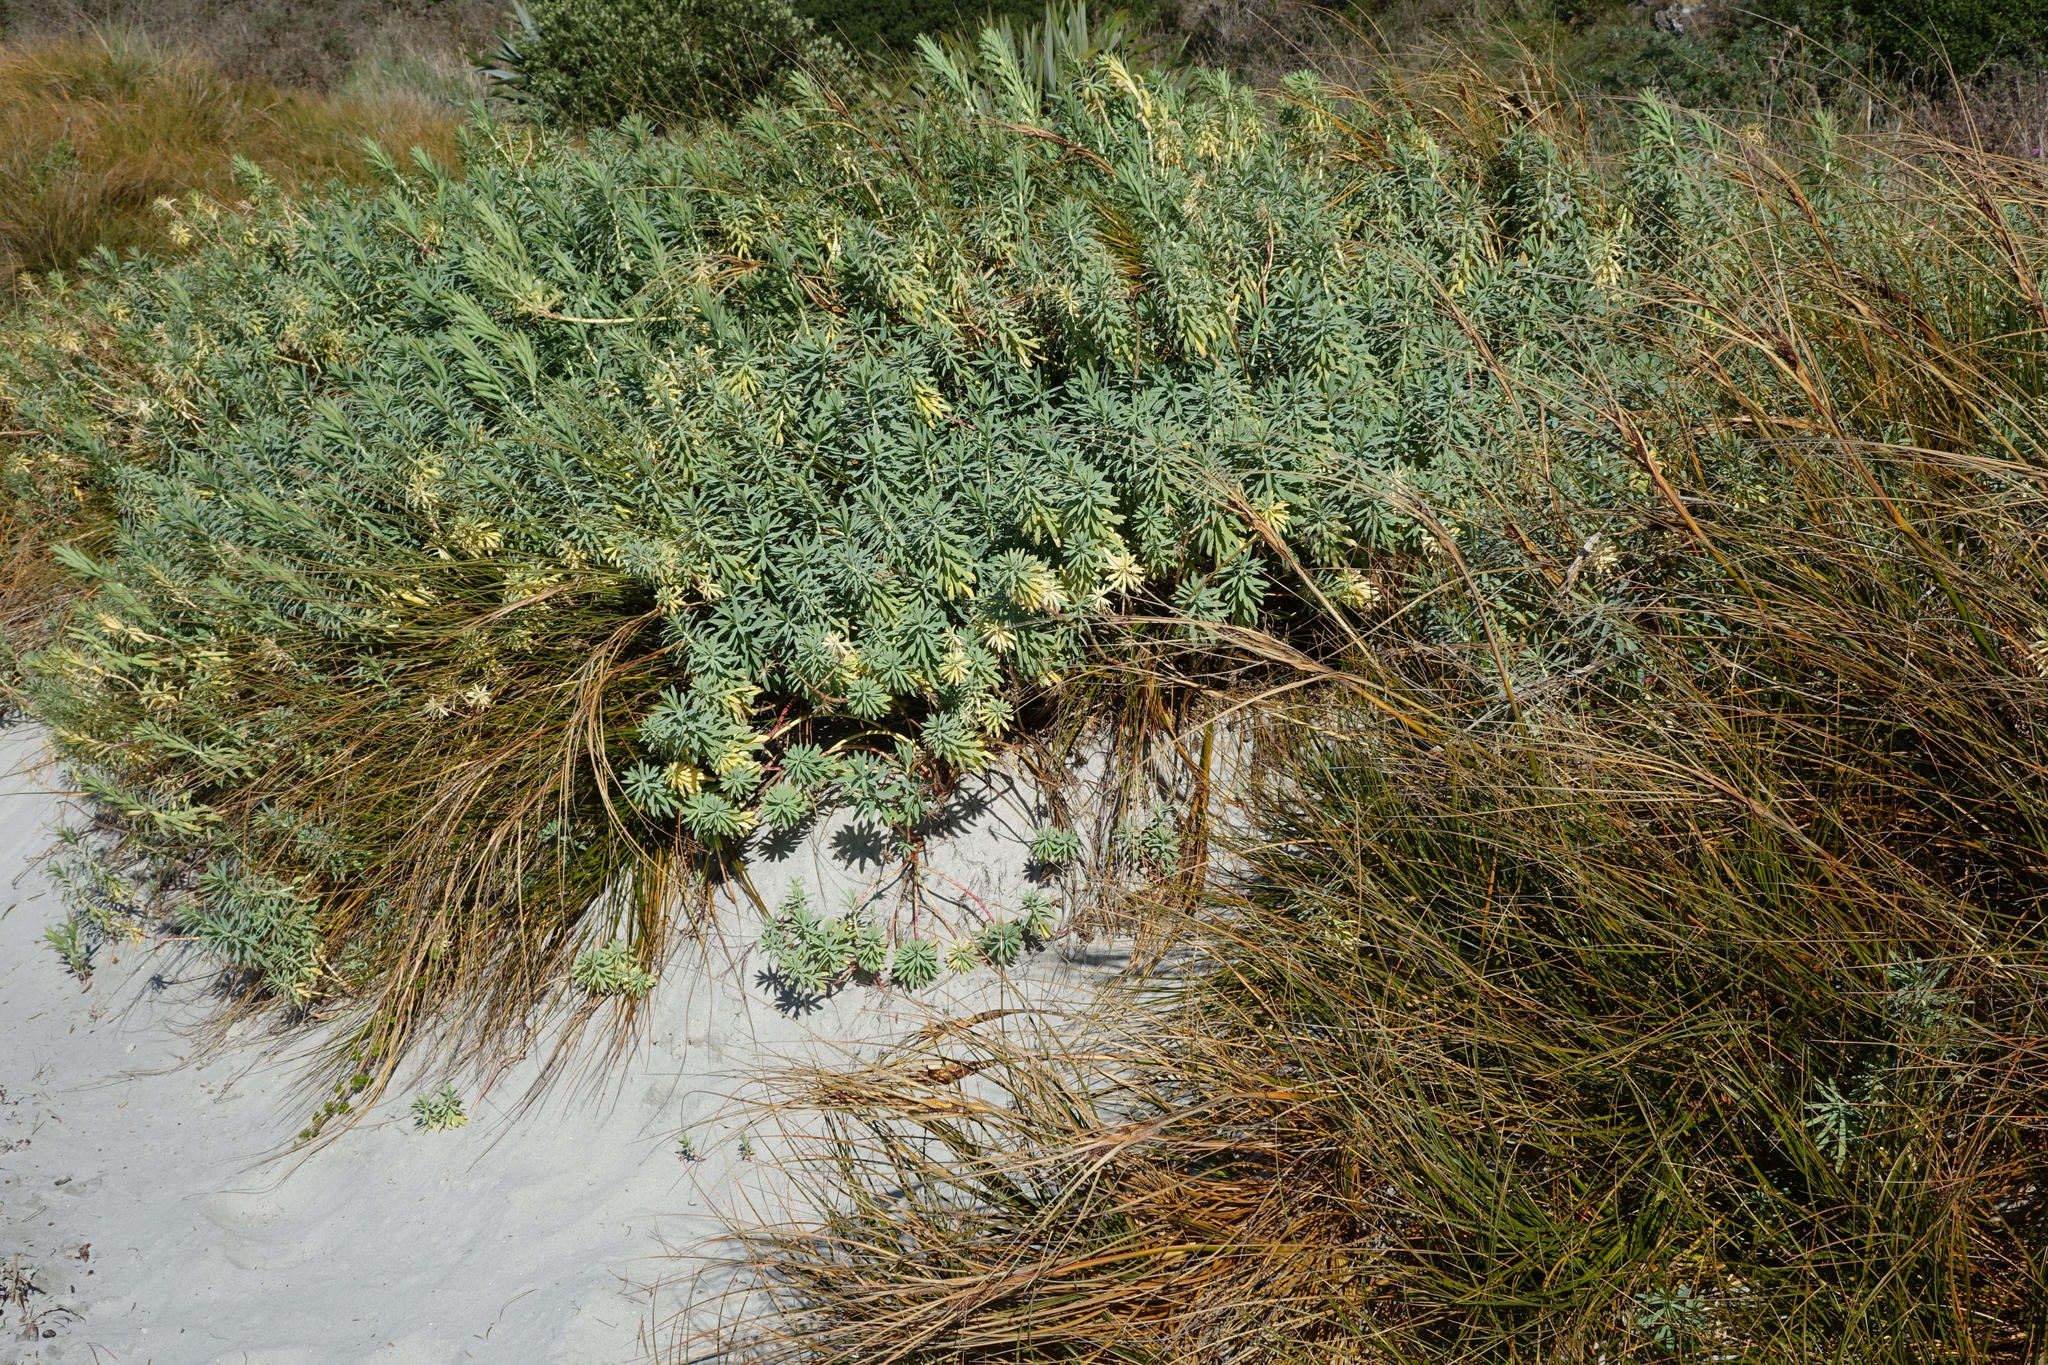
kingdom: Plantae
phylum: Tracheophyta
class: Magnoliopsida
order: Malpighiales
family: Euphorbiaceae
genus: Euphorbia
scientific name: Euphorbia glauca
